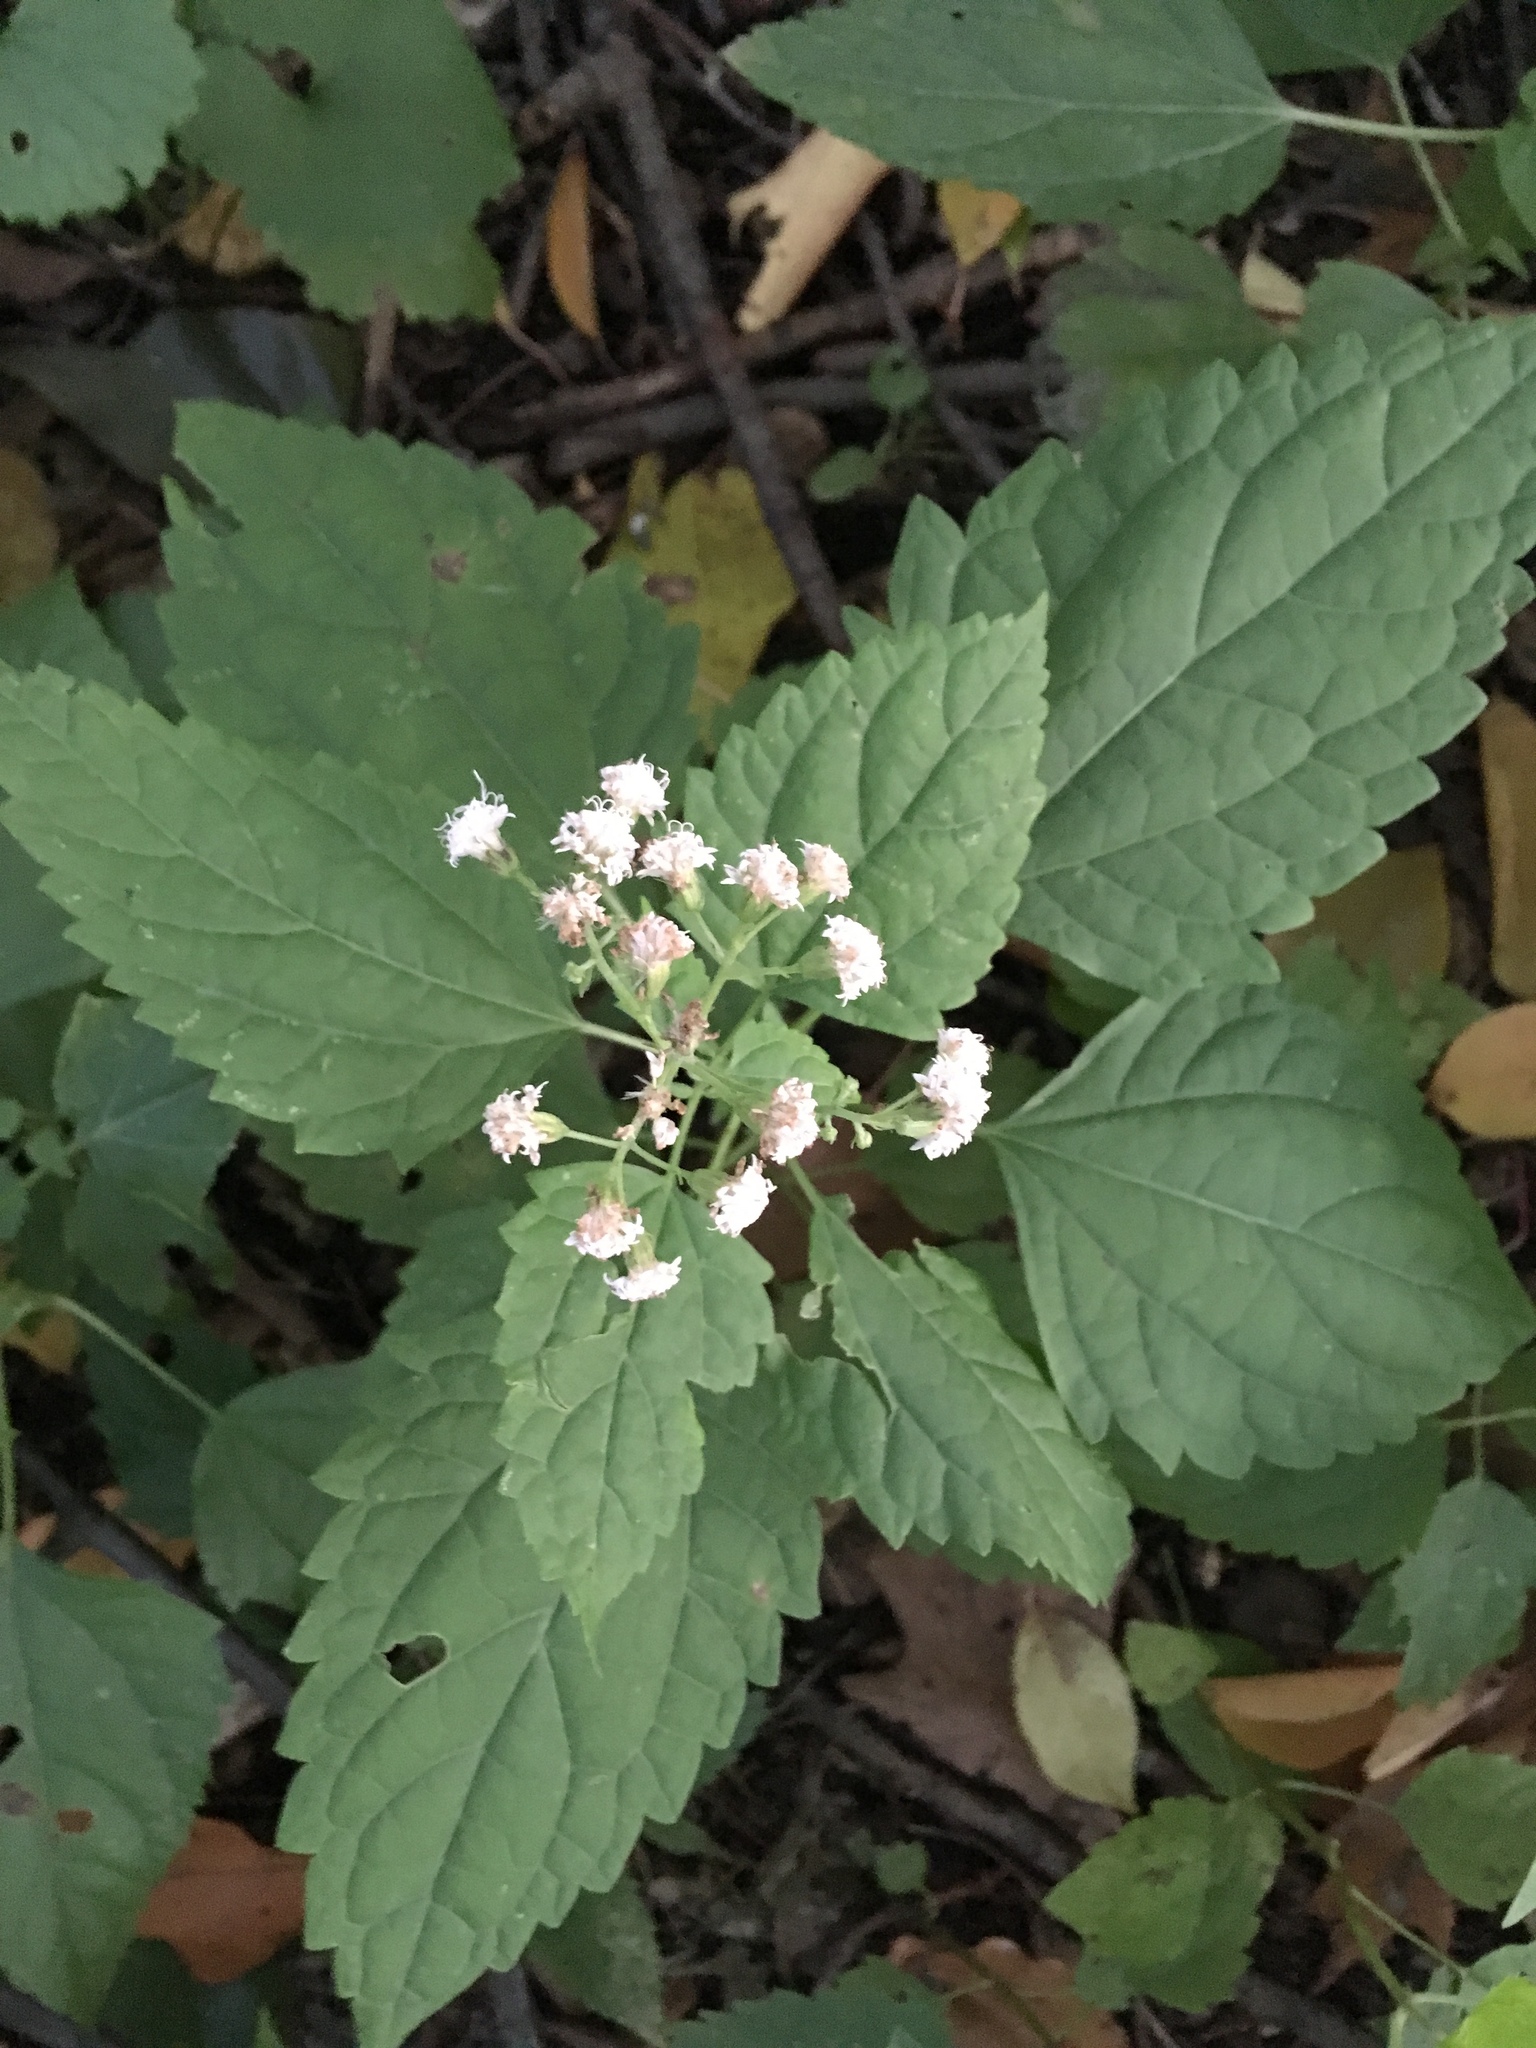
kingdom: Plantae
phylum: Tracheophyta
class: Magnoliopsida
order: Asterales
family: Asteraceae
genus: Ageratina
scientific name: Ageratina altissima
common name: White snakeroot
